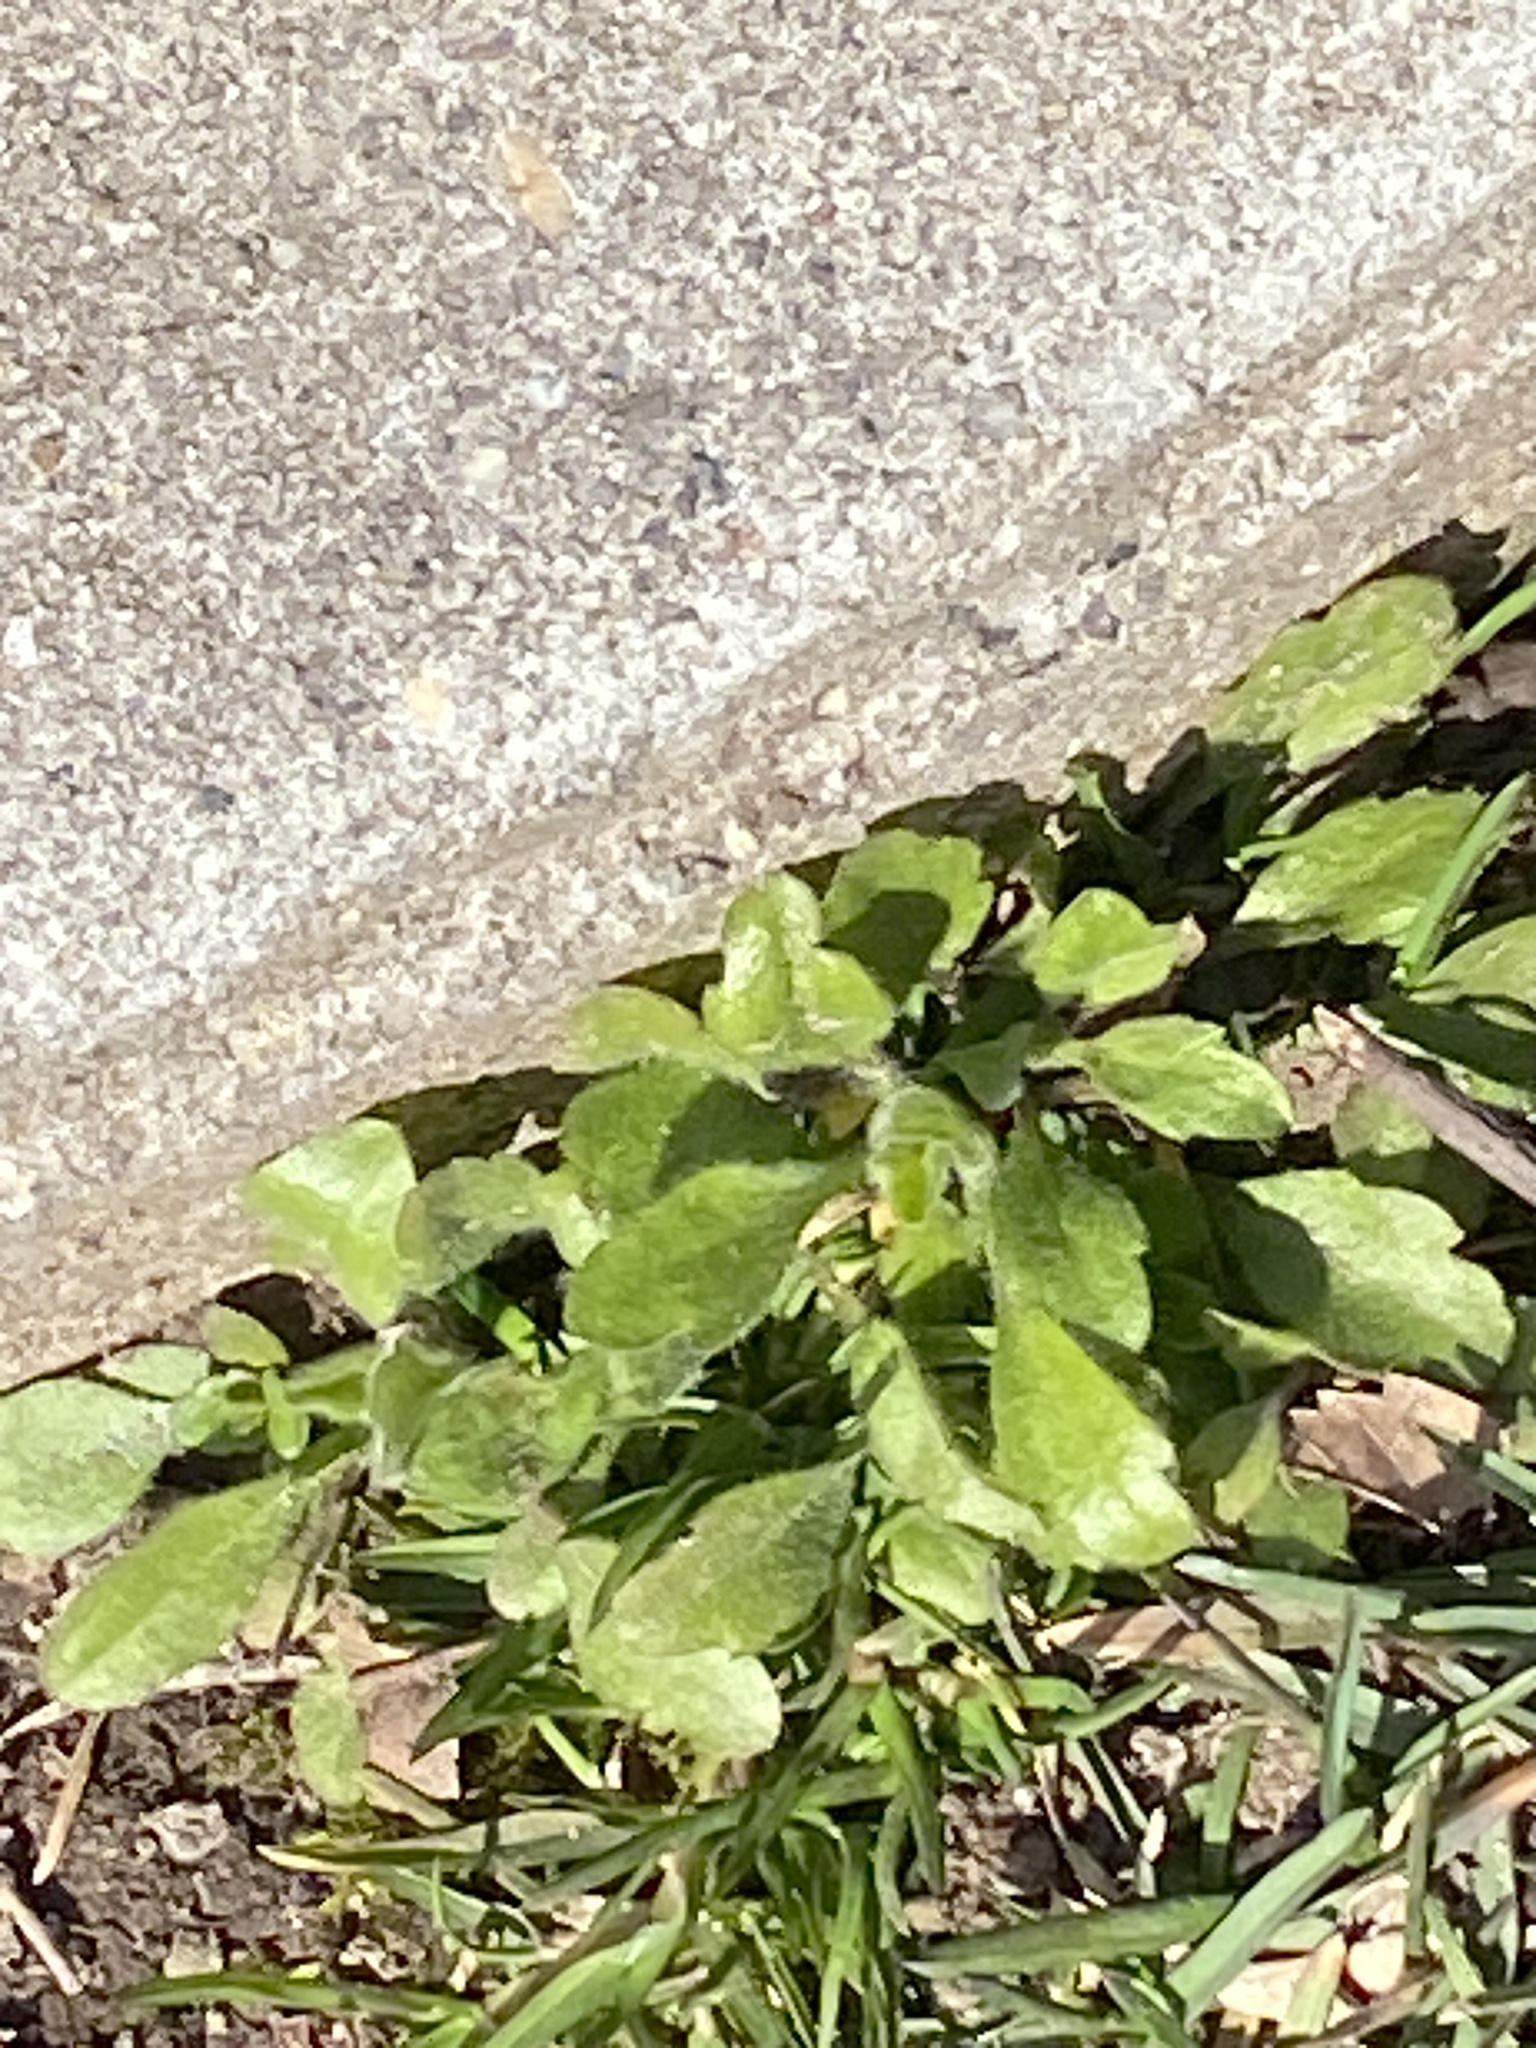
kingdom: Plantae
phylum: Tracheophyta
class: Magnoliopsida
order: Asterales
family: Asteraceae
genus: Erigeron
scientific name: Erigeron canadensis
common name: Canadian fleabane
